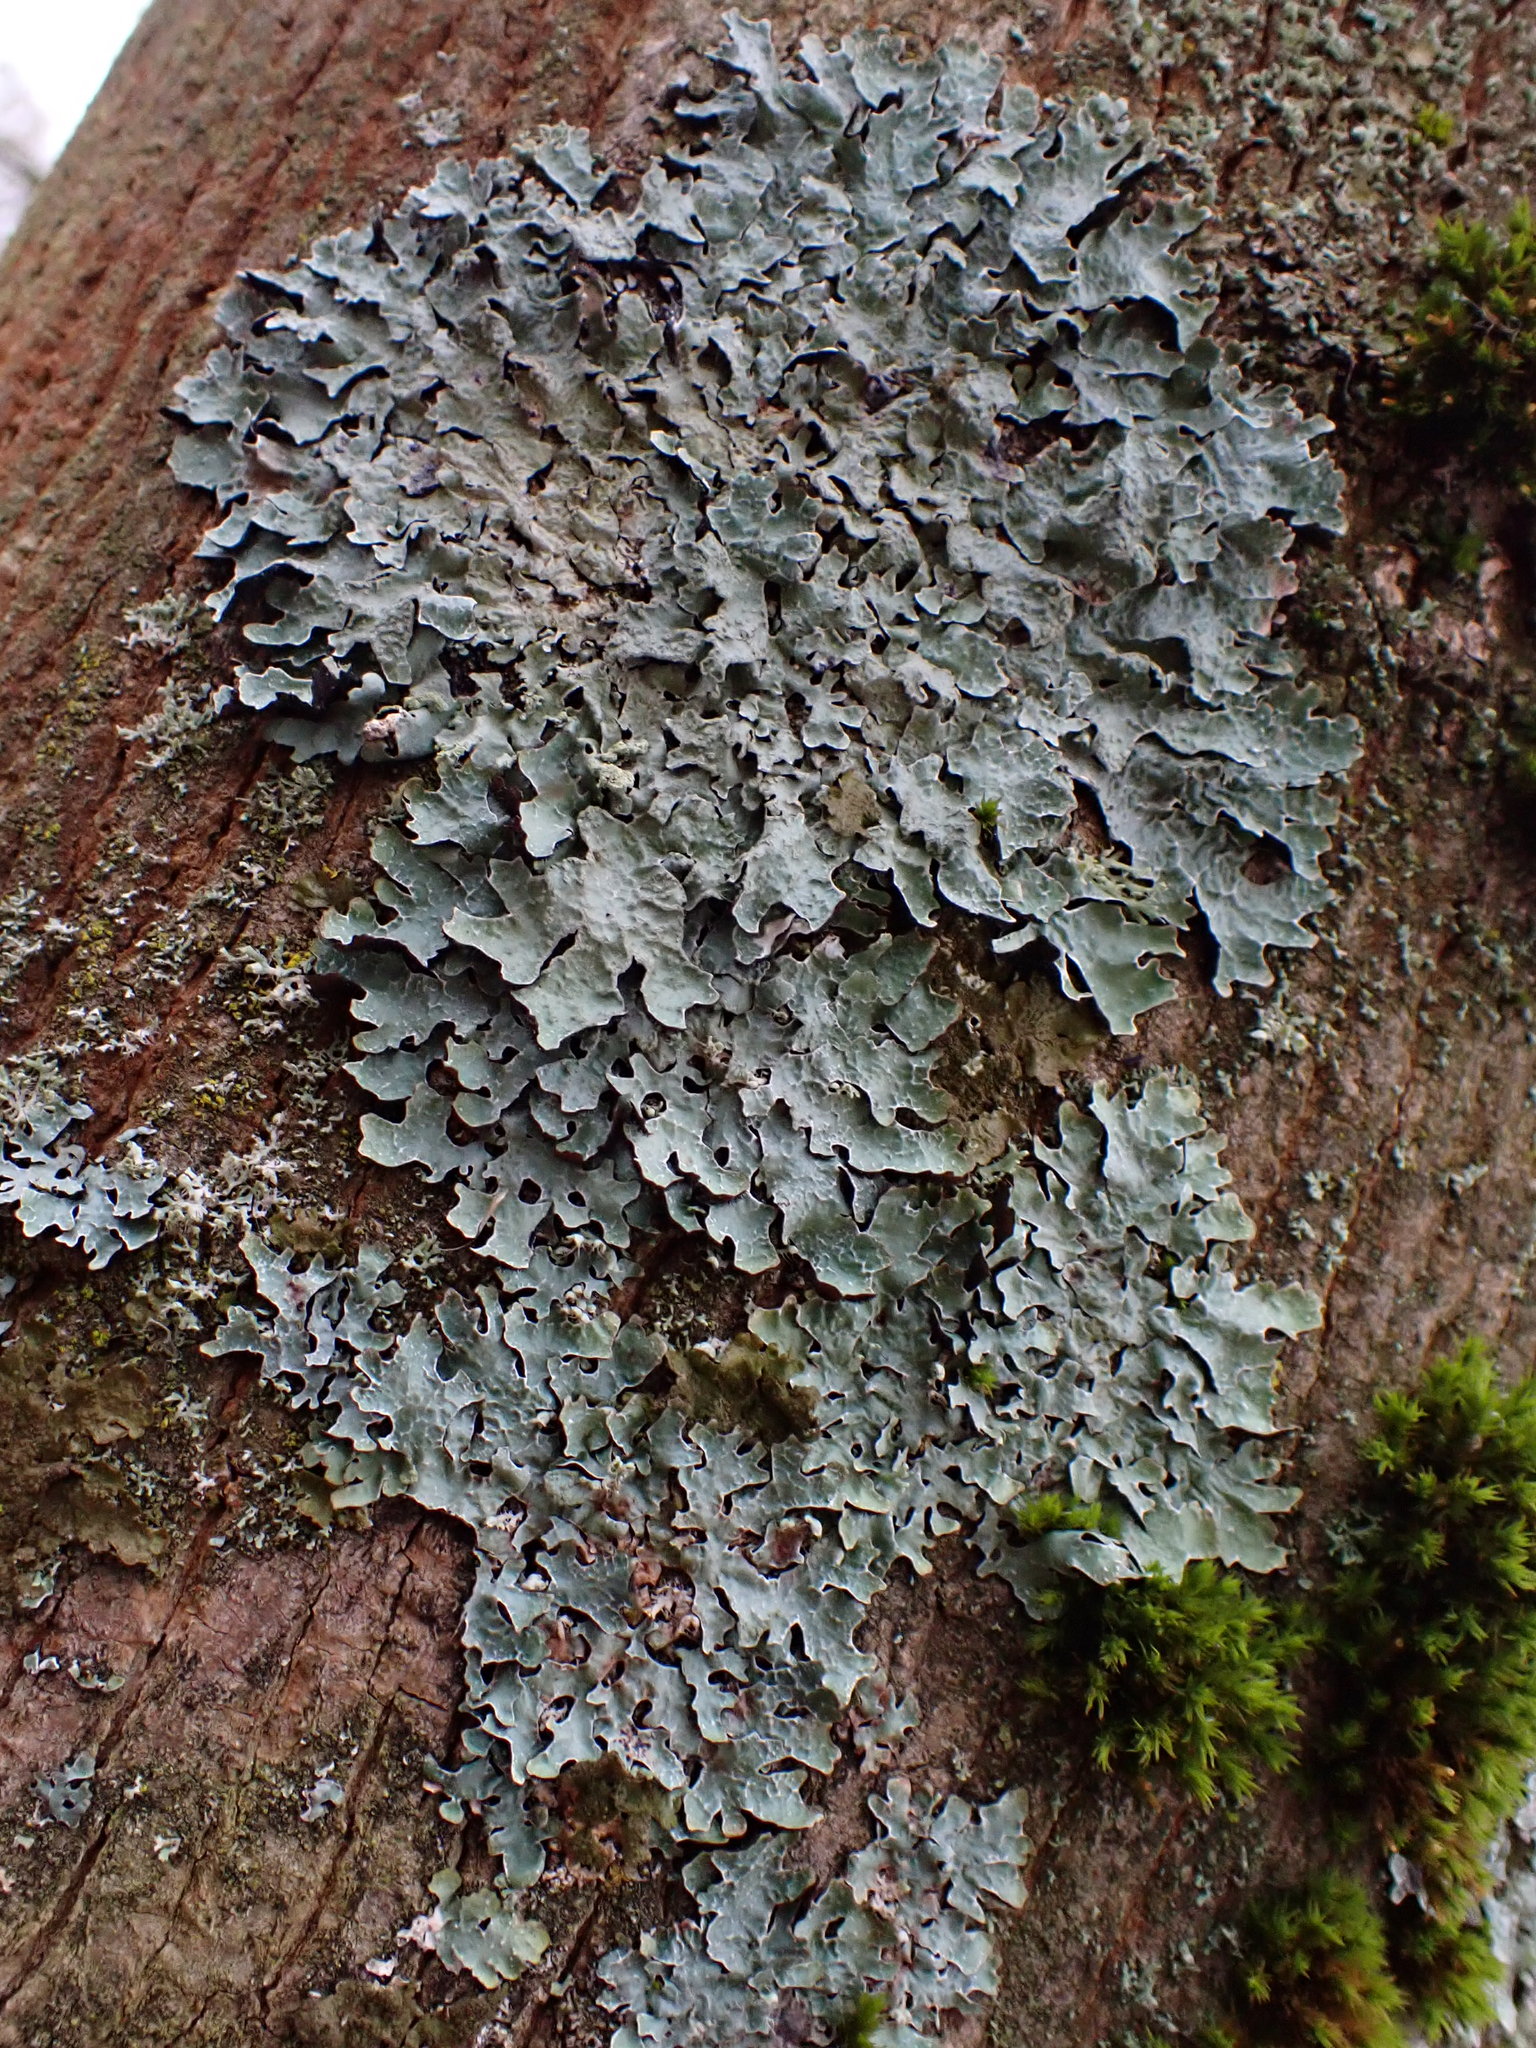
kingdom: Fungi
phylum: Ascomycota
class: Lecanoromycetes
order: Lecanorales
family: Parmeliaceae
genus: Parmelia
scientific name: Parmelia sulcata
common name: Netted shield lichen
